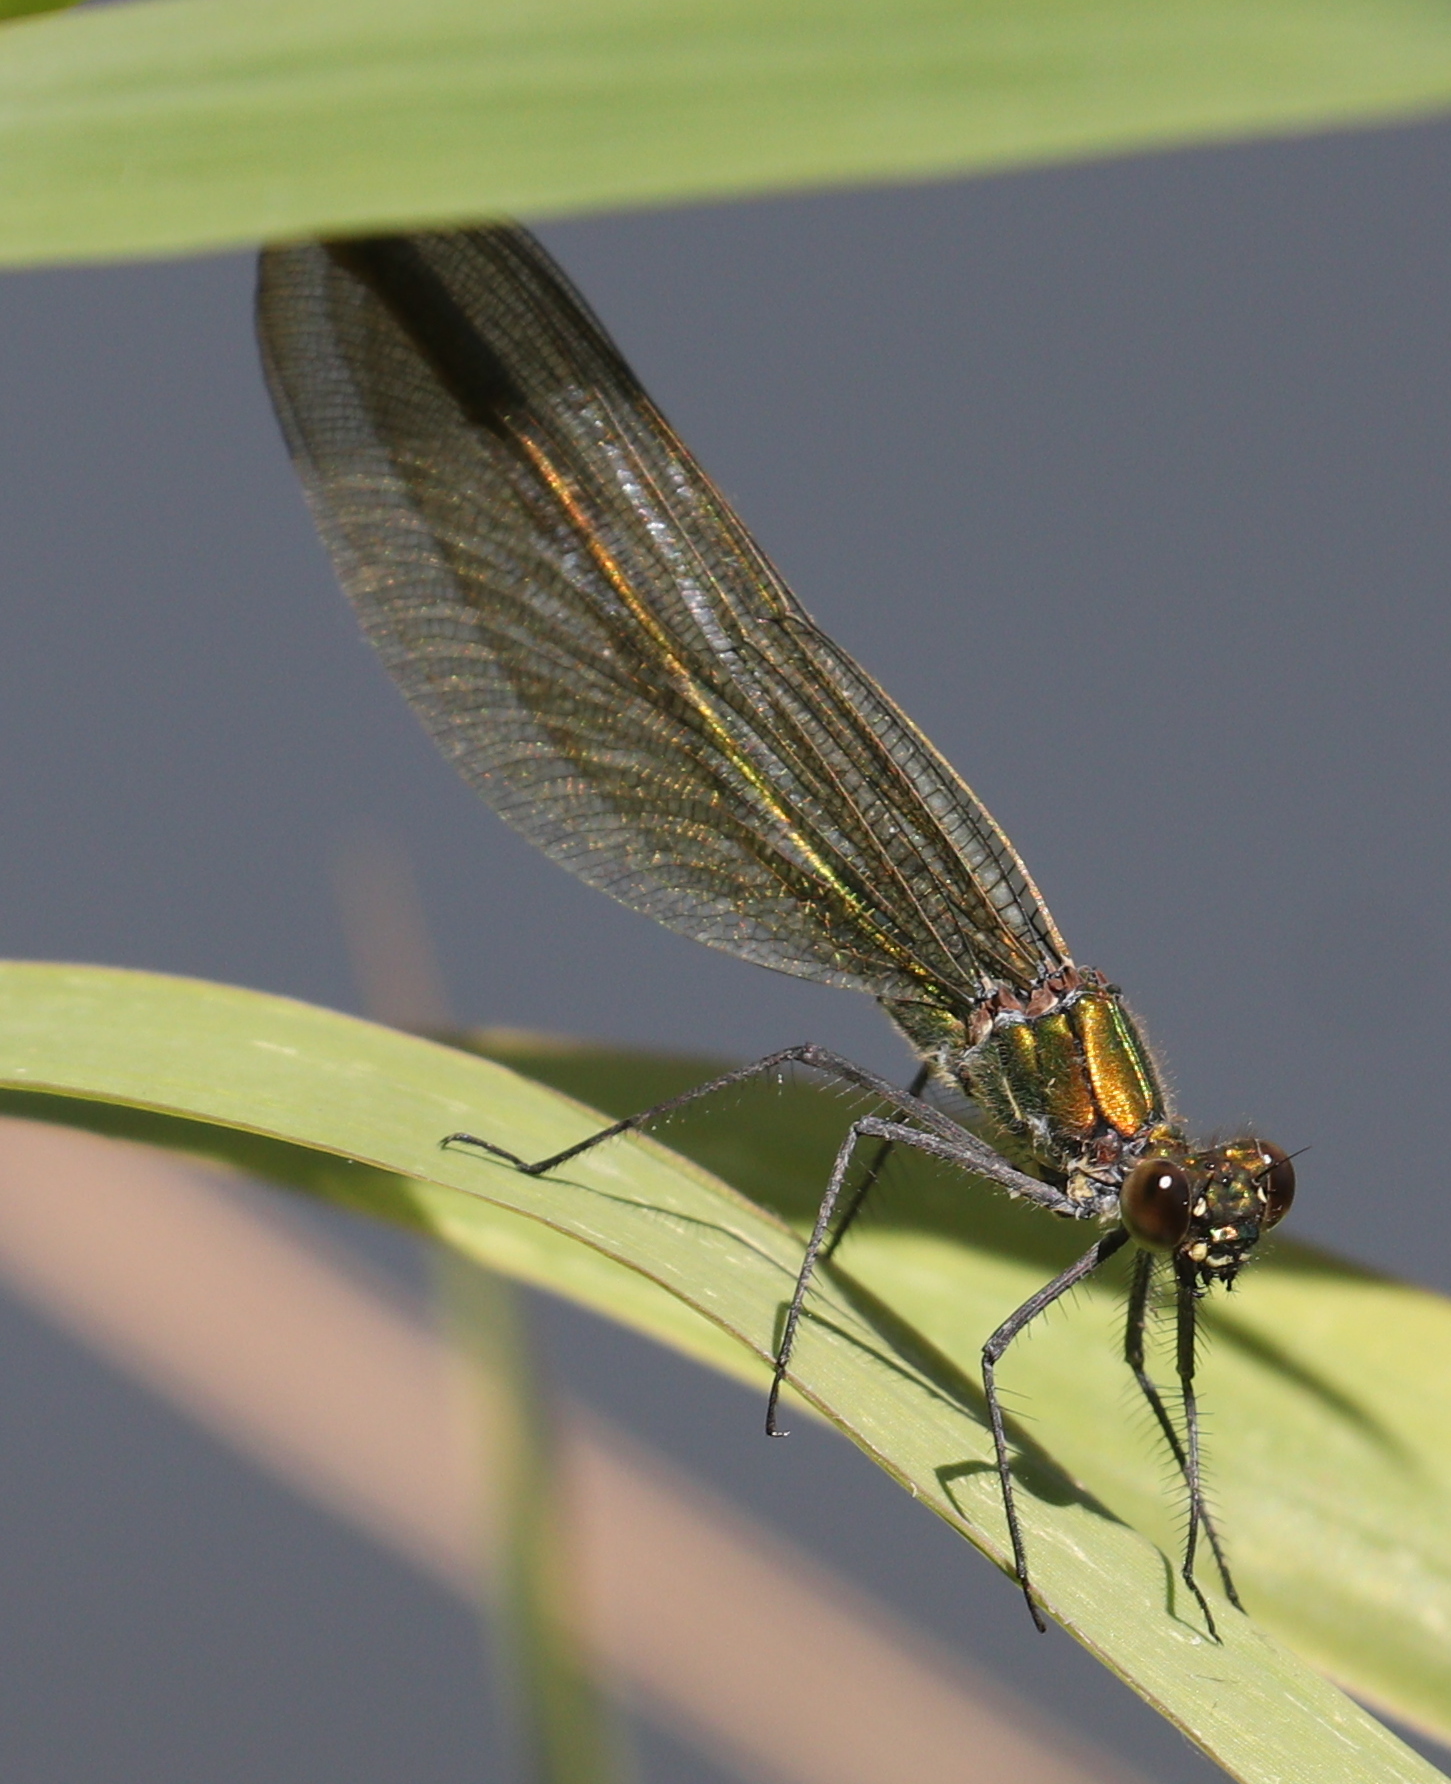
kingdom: Animalia
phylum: Arthropoda
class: Insecta
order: Odonata
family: Calopterygidae
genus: Calopteryx
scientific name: Calopteryx splendens
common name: Banded demoiselle
